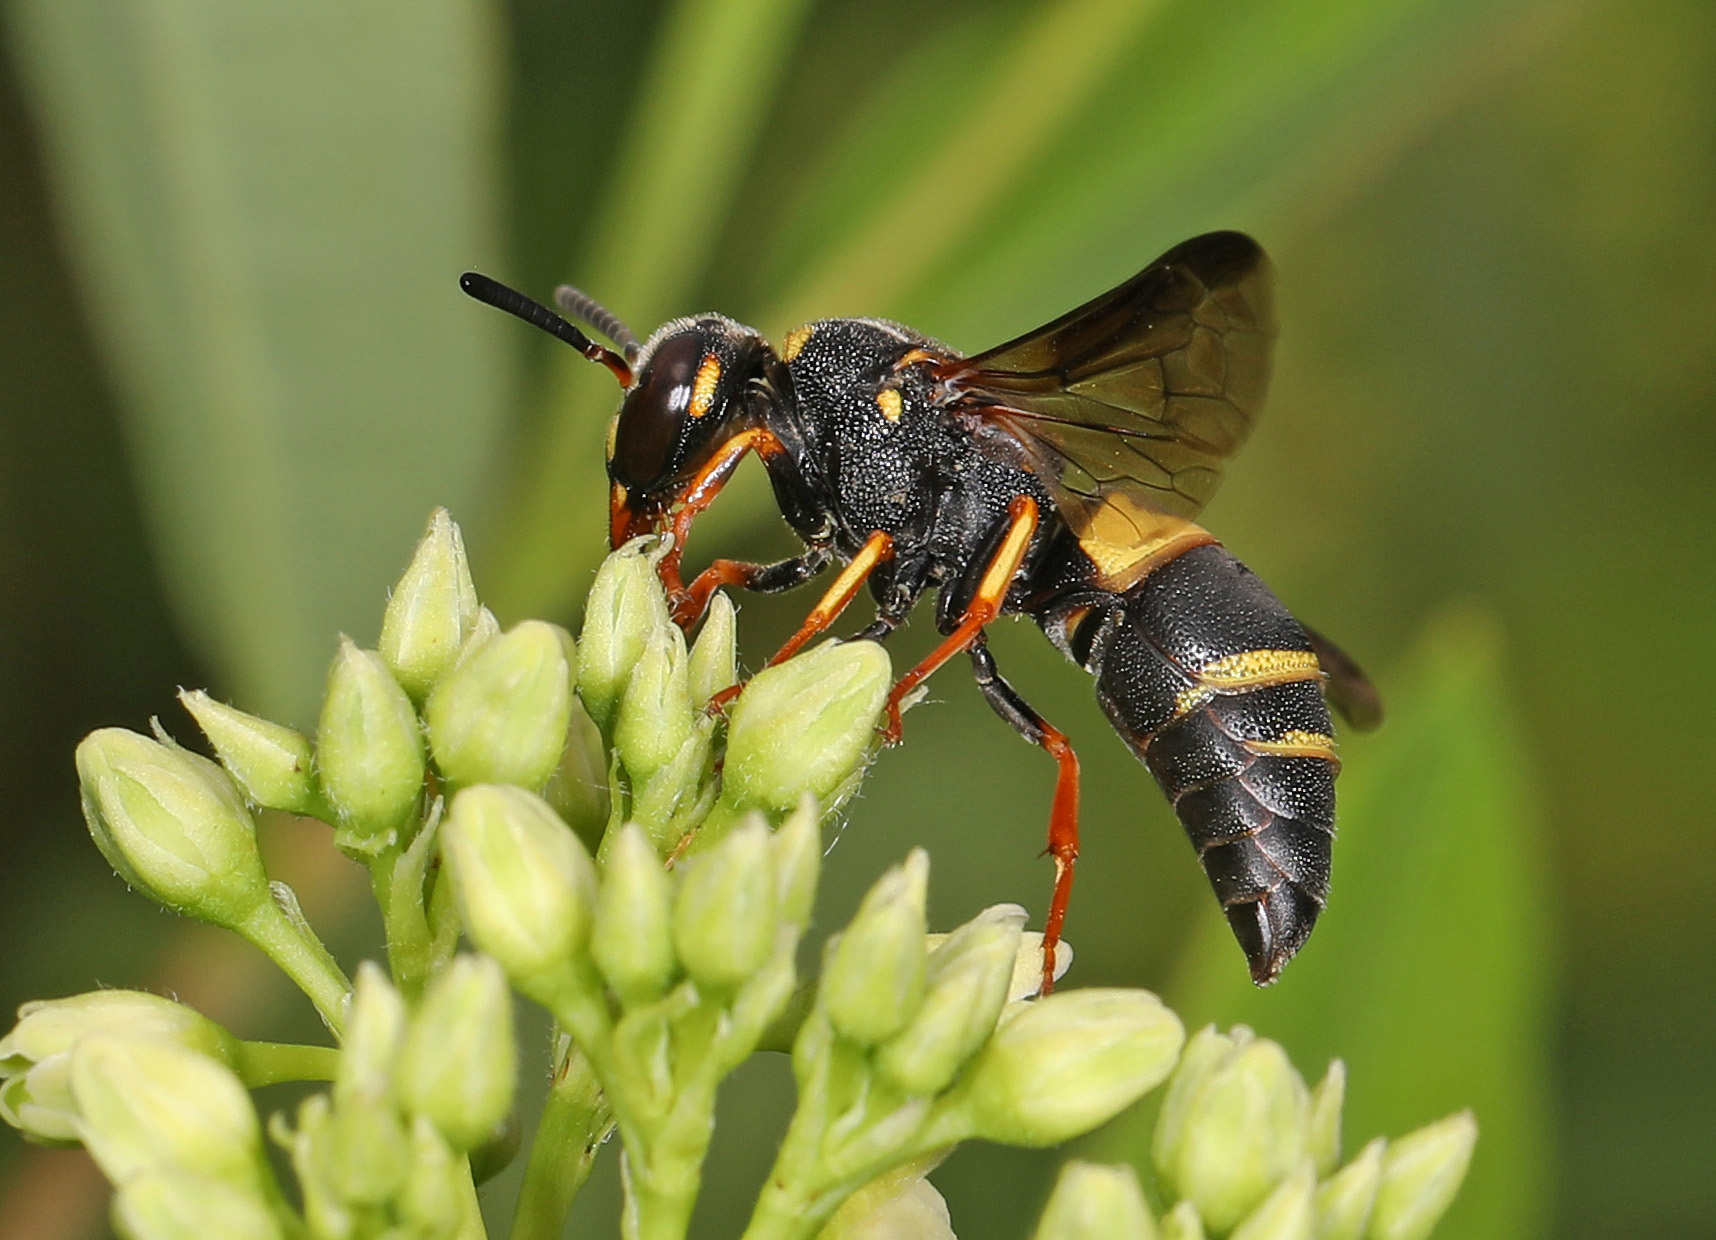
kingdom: Animalia
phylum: Arthropoda
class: Insecta
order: Hymenoptera
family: Eumenidae
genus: Euodynerus
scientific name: Euodynerus hidalgo
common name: Wasp
